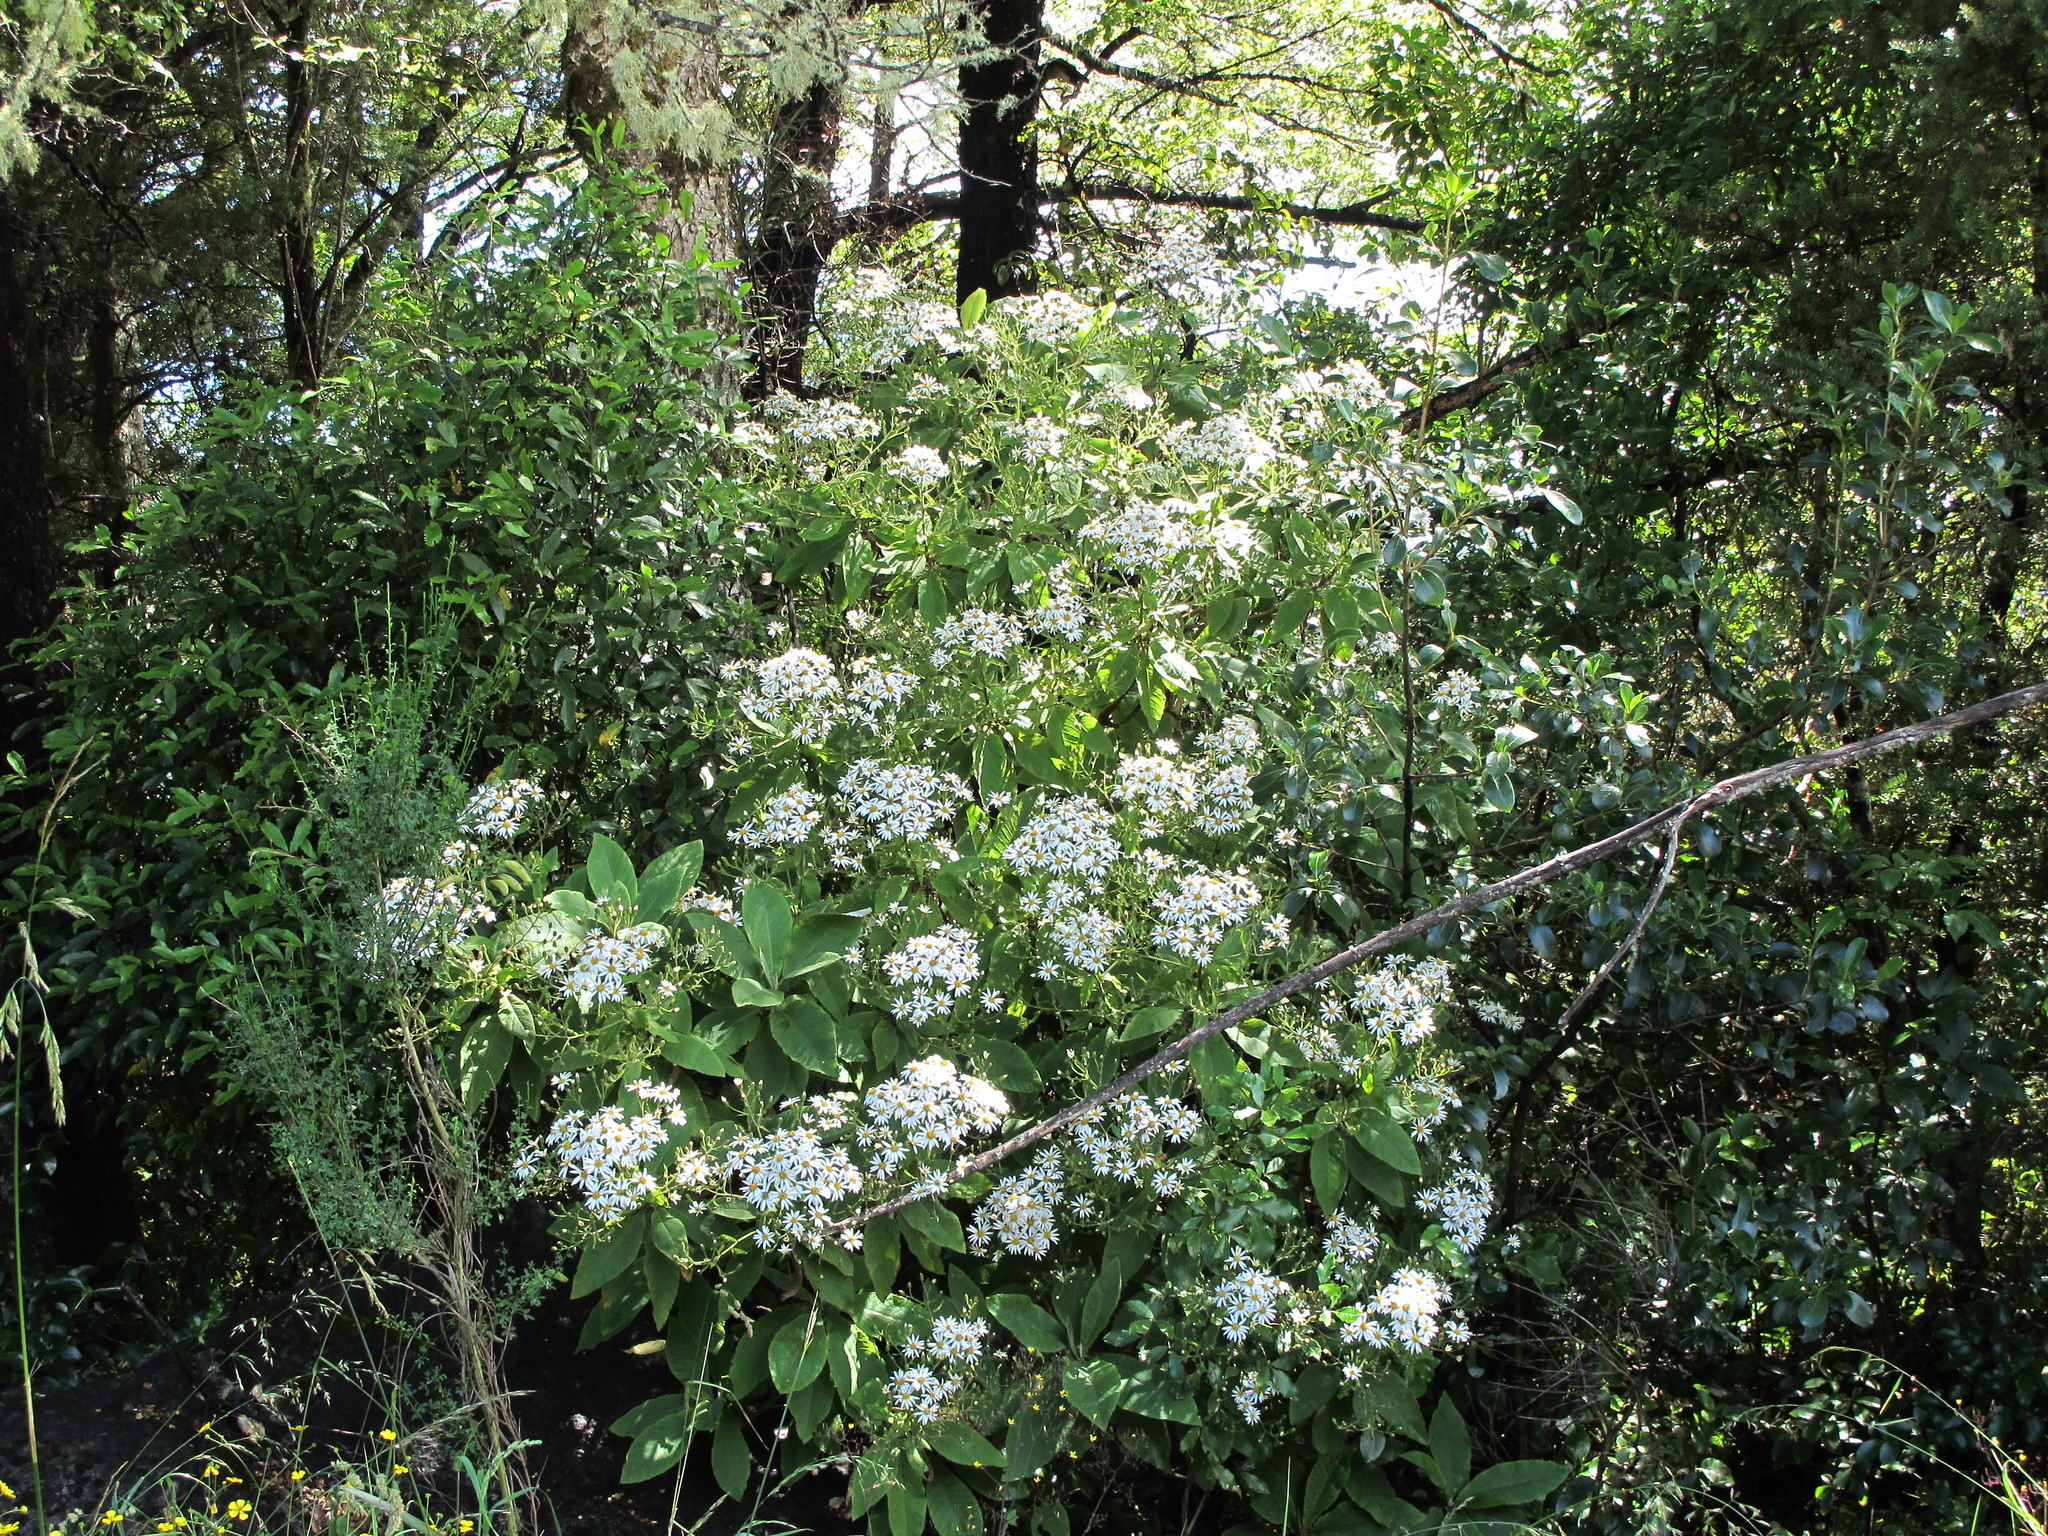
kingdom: Plantae
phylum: Tracheophyta
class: Magnoliopsida
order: Asterales
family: Asteraceae
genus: Brachyglottis
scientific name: Brachyglottis hectorii
